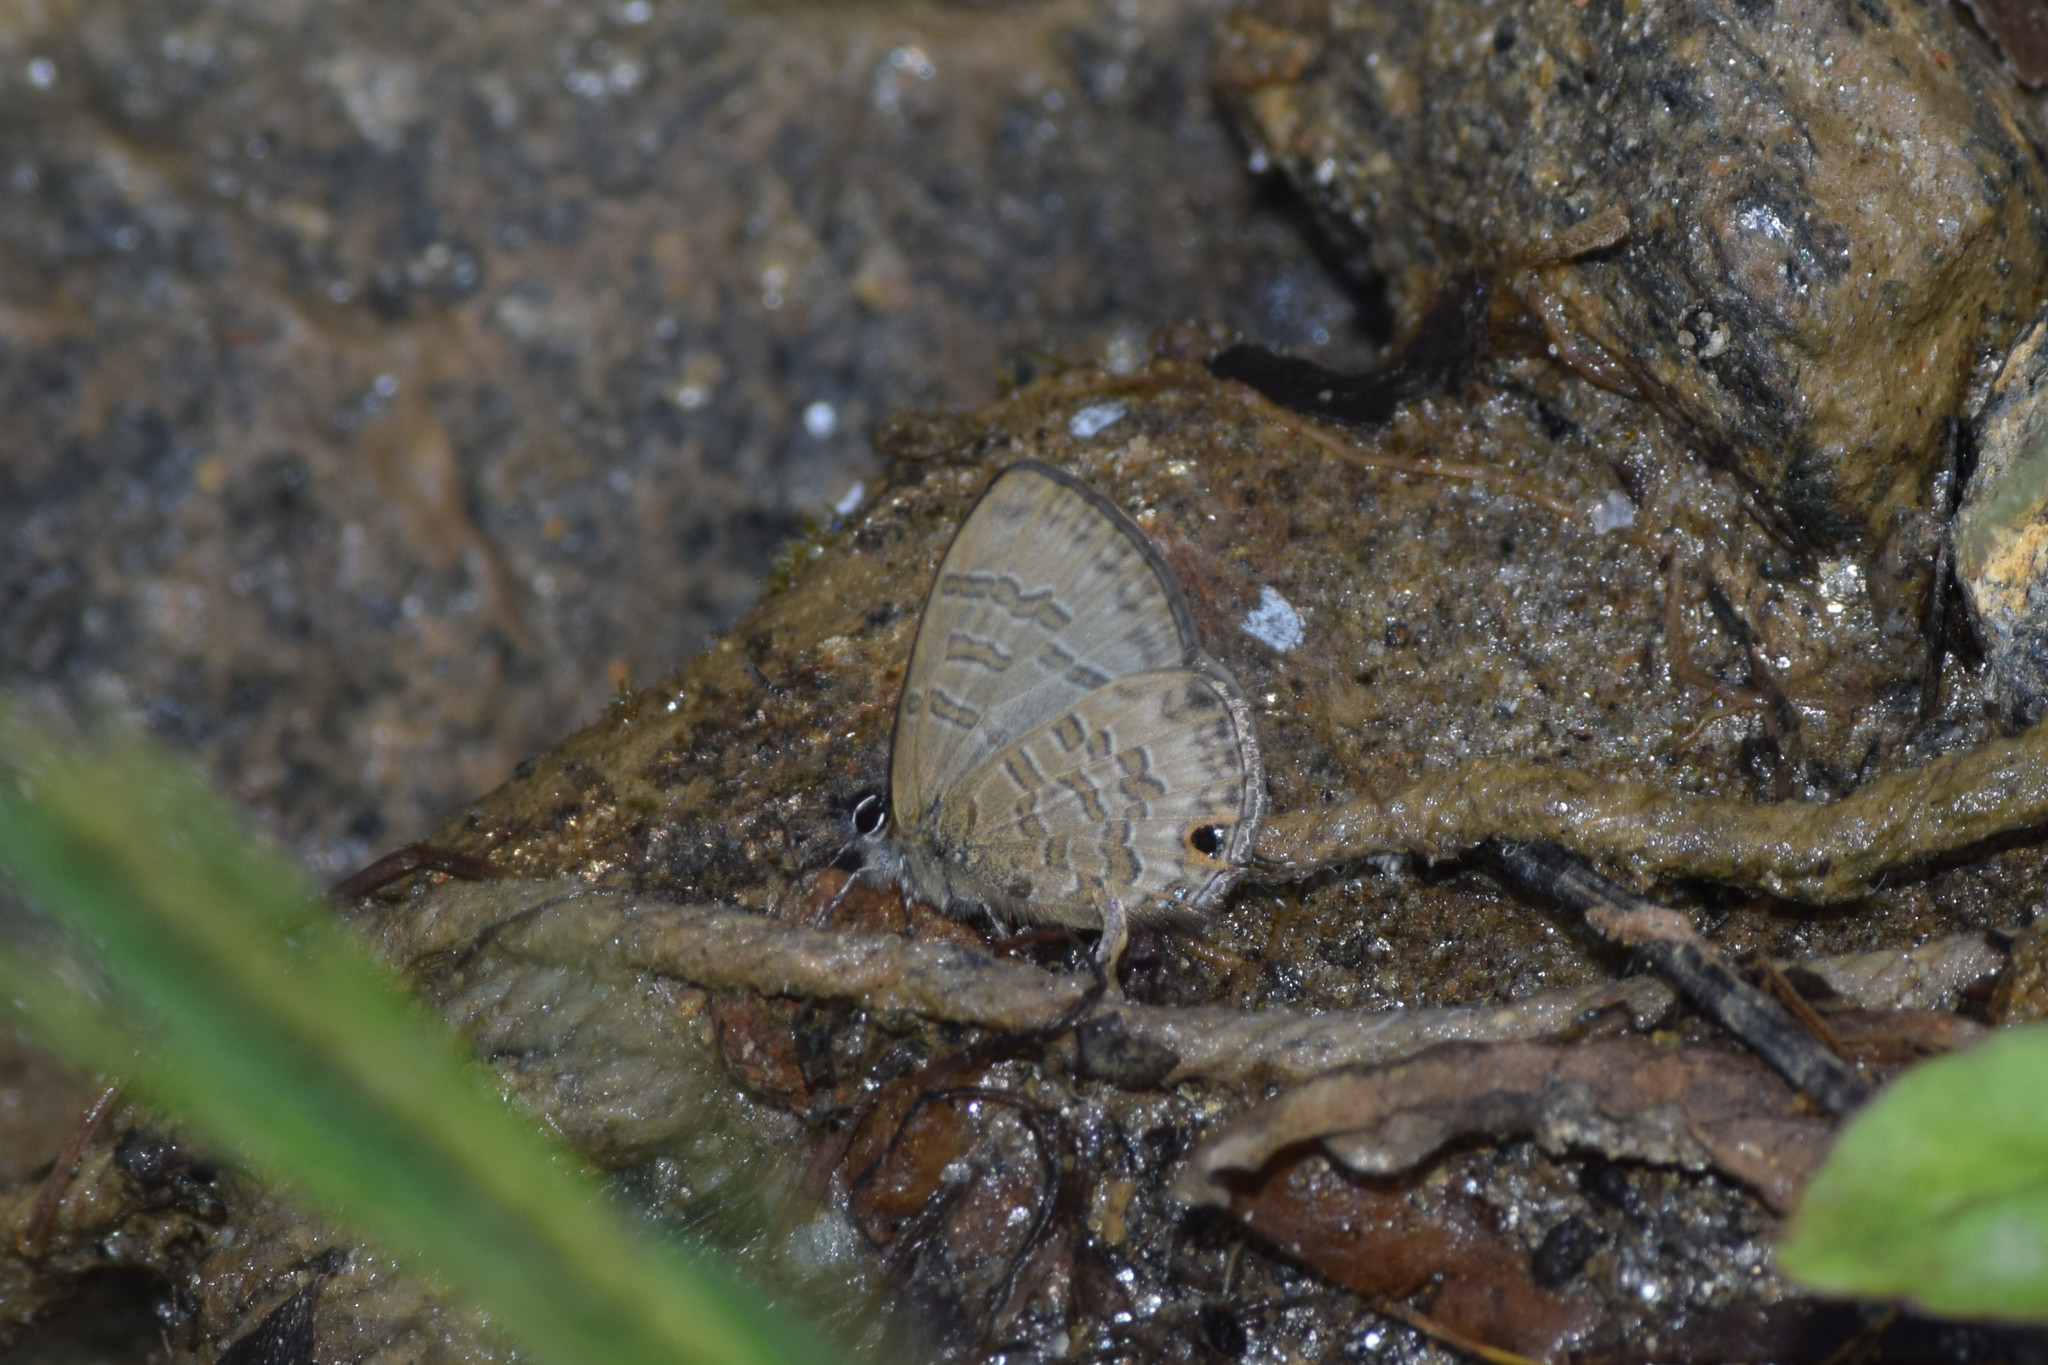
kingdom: Animalia
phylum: Arthropoda
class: Insecta
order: Lepidoptera
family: Lycaenidae
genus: Prosotas
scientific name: Prosotas nora
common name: Common line blue
